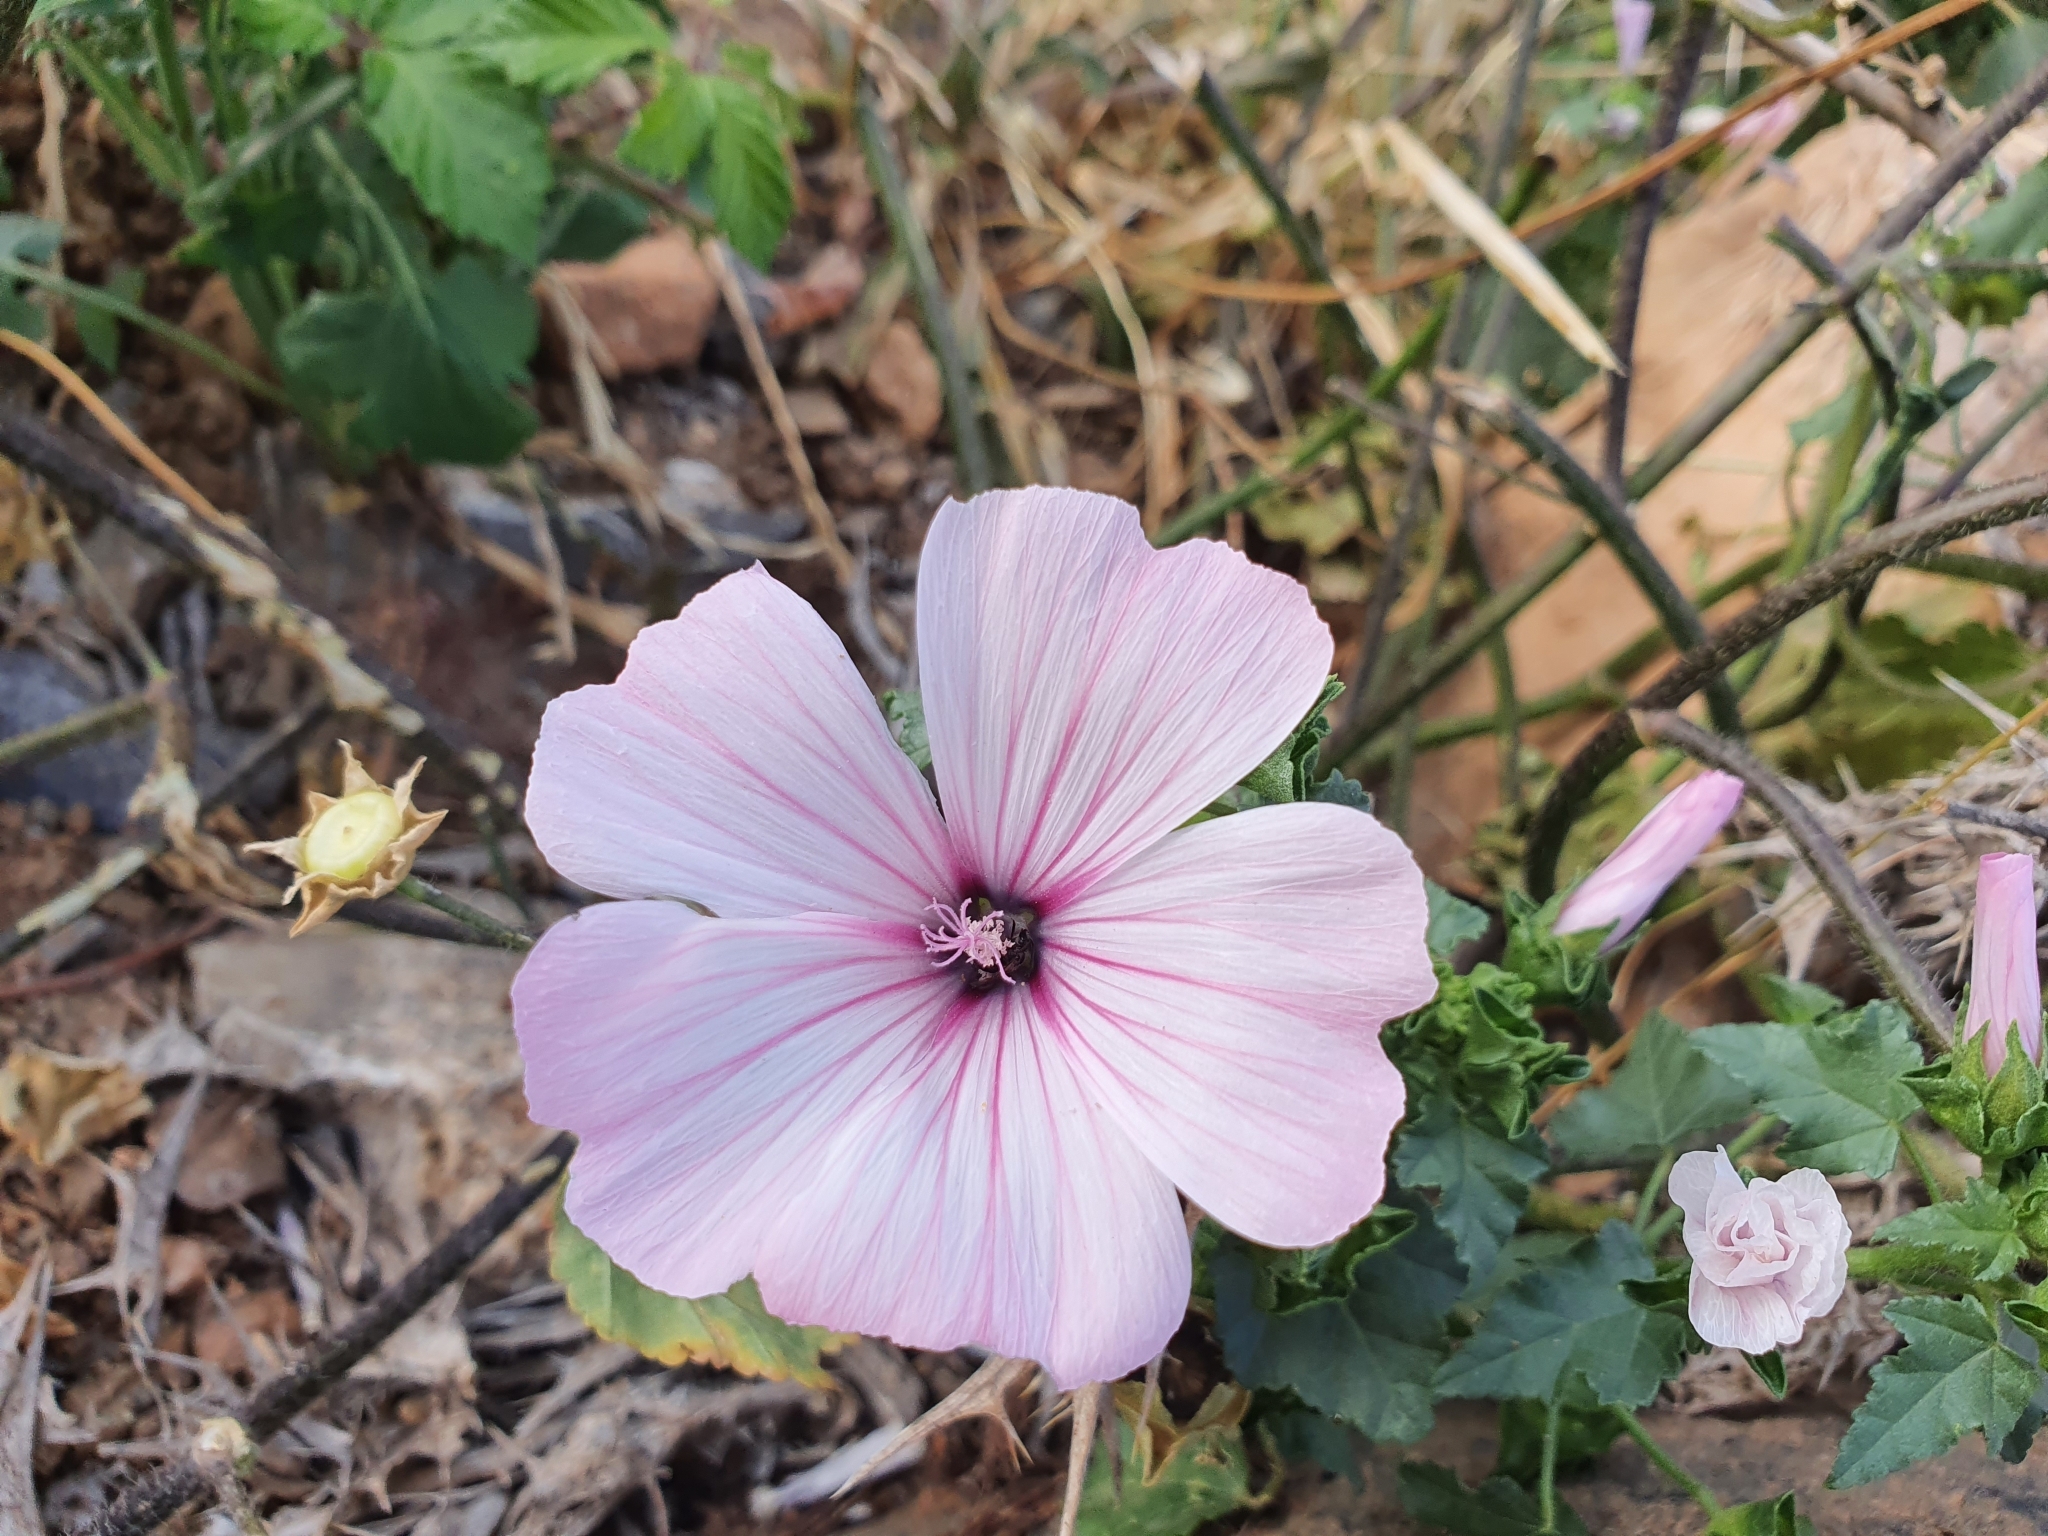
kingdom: Plantae
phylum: Tracheophyta
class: Magnoliopsida
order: Malvales
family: Malvaceae
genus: Malva
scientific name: Malva trimestris
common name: Royal mallow
